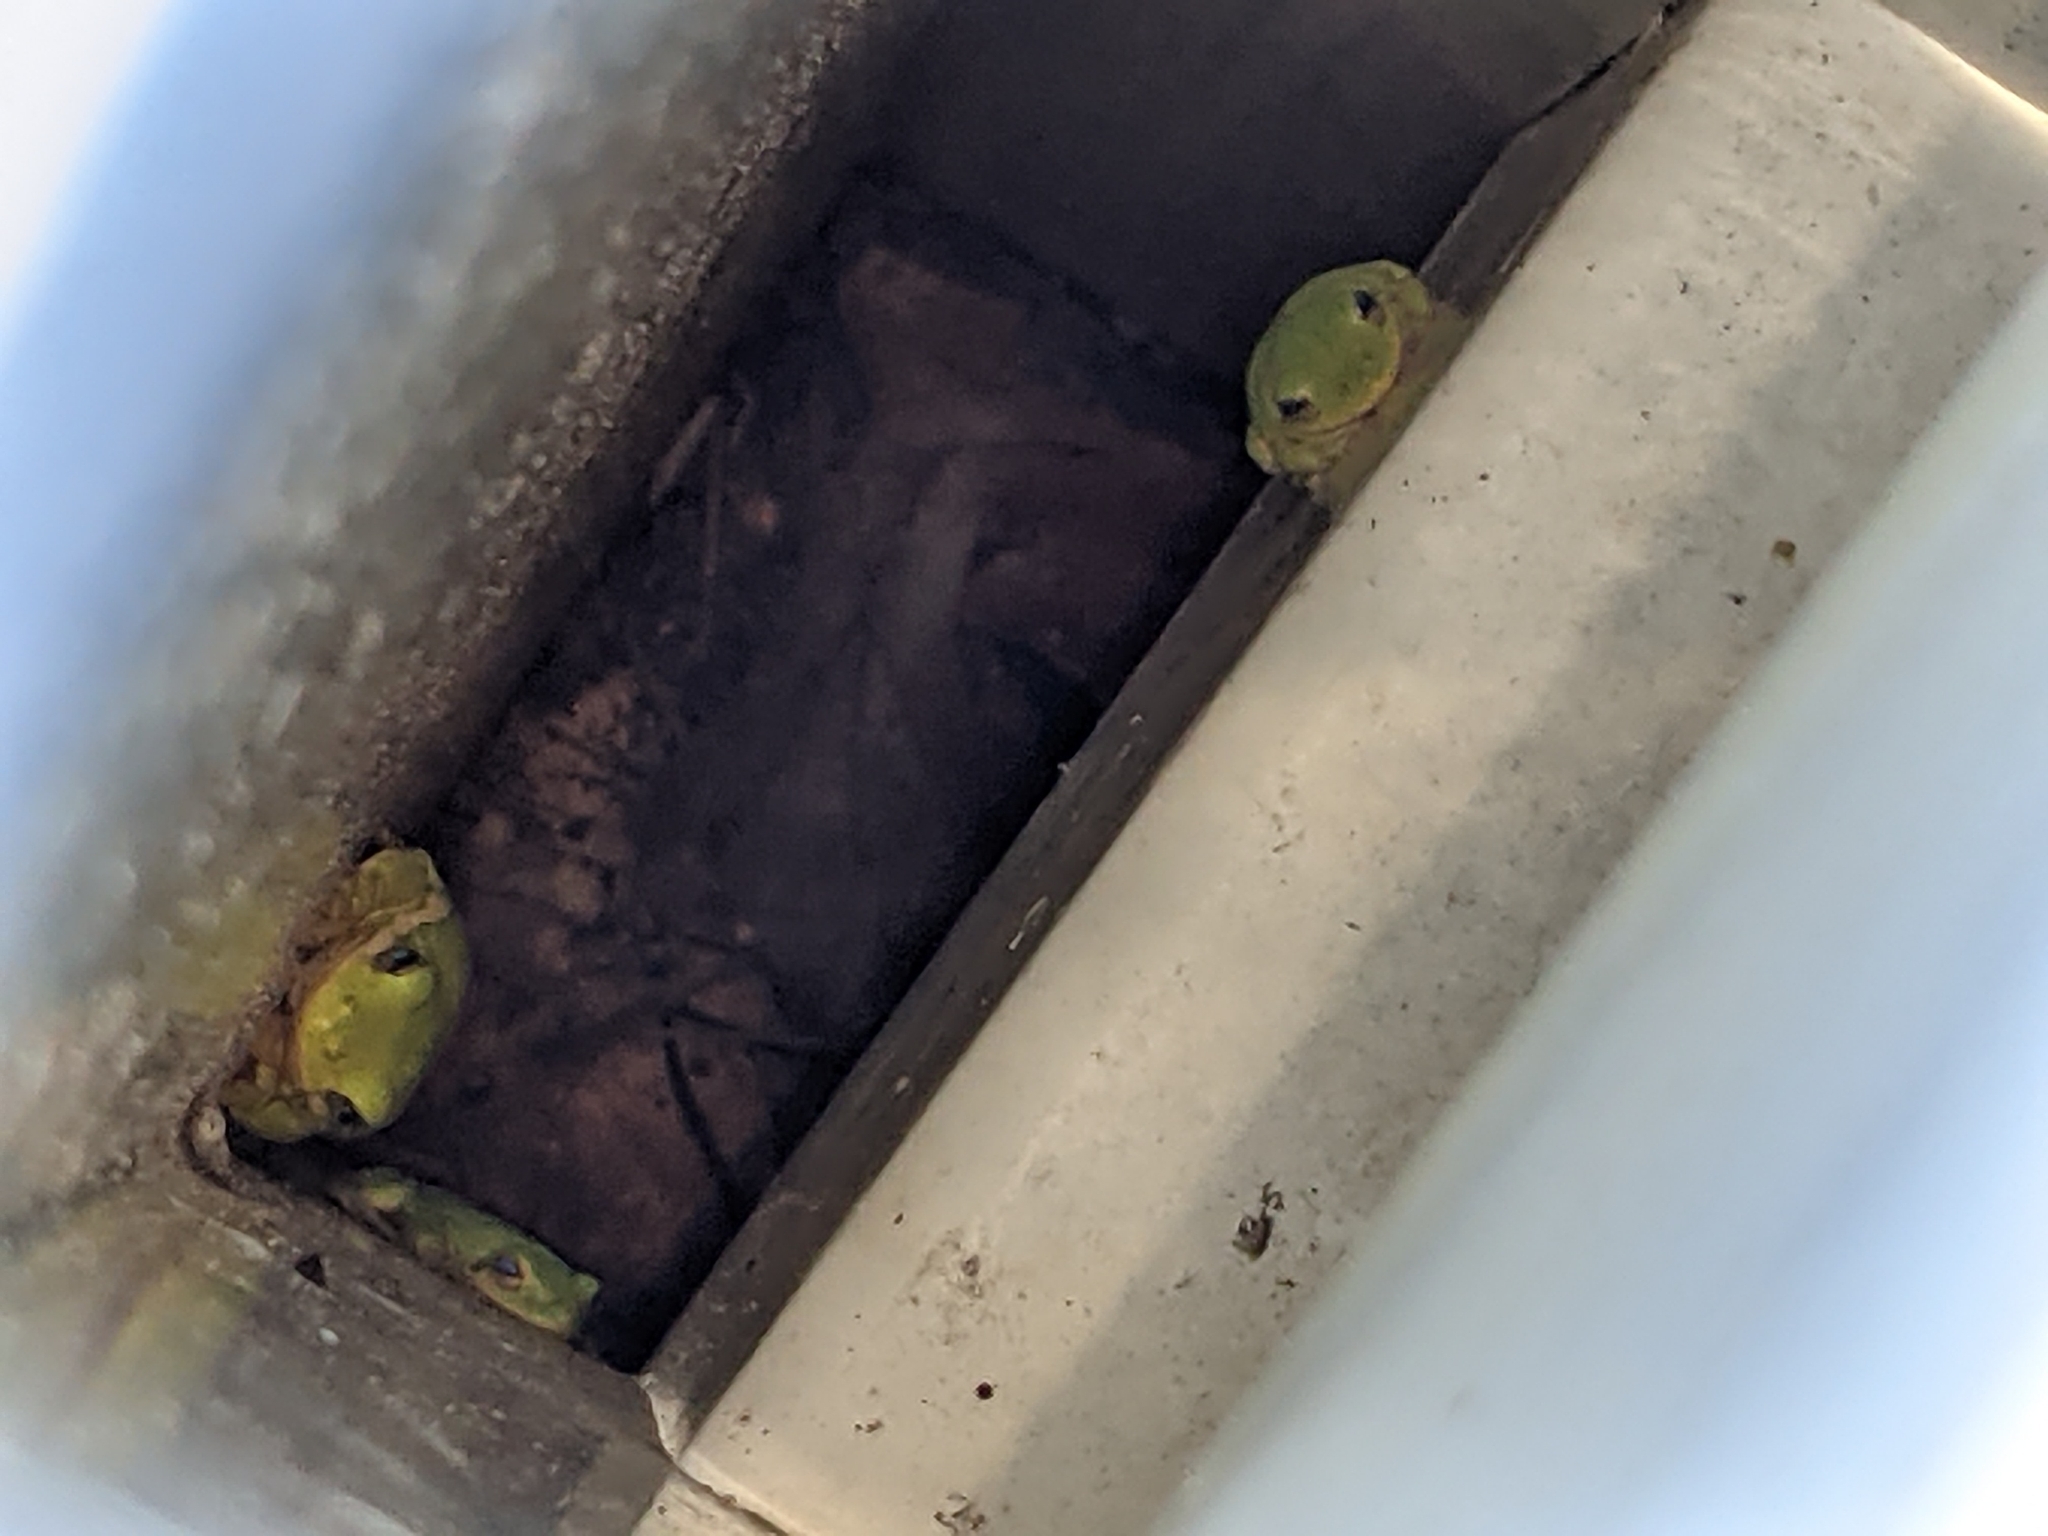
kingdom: Animalia
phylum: Chordata
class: Amphibia
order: Anura
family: Hylidae
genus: Dryophytes
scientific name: Dryophytes cinereus
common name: Green treefrog
